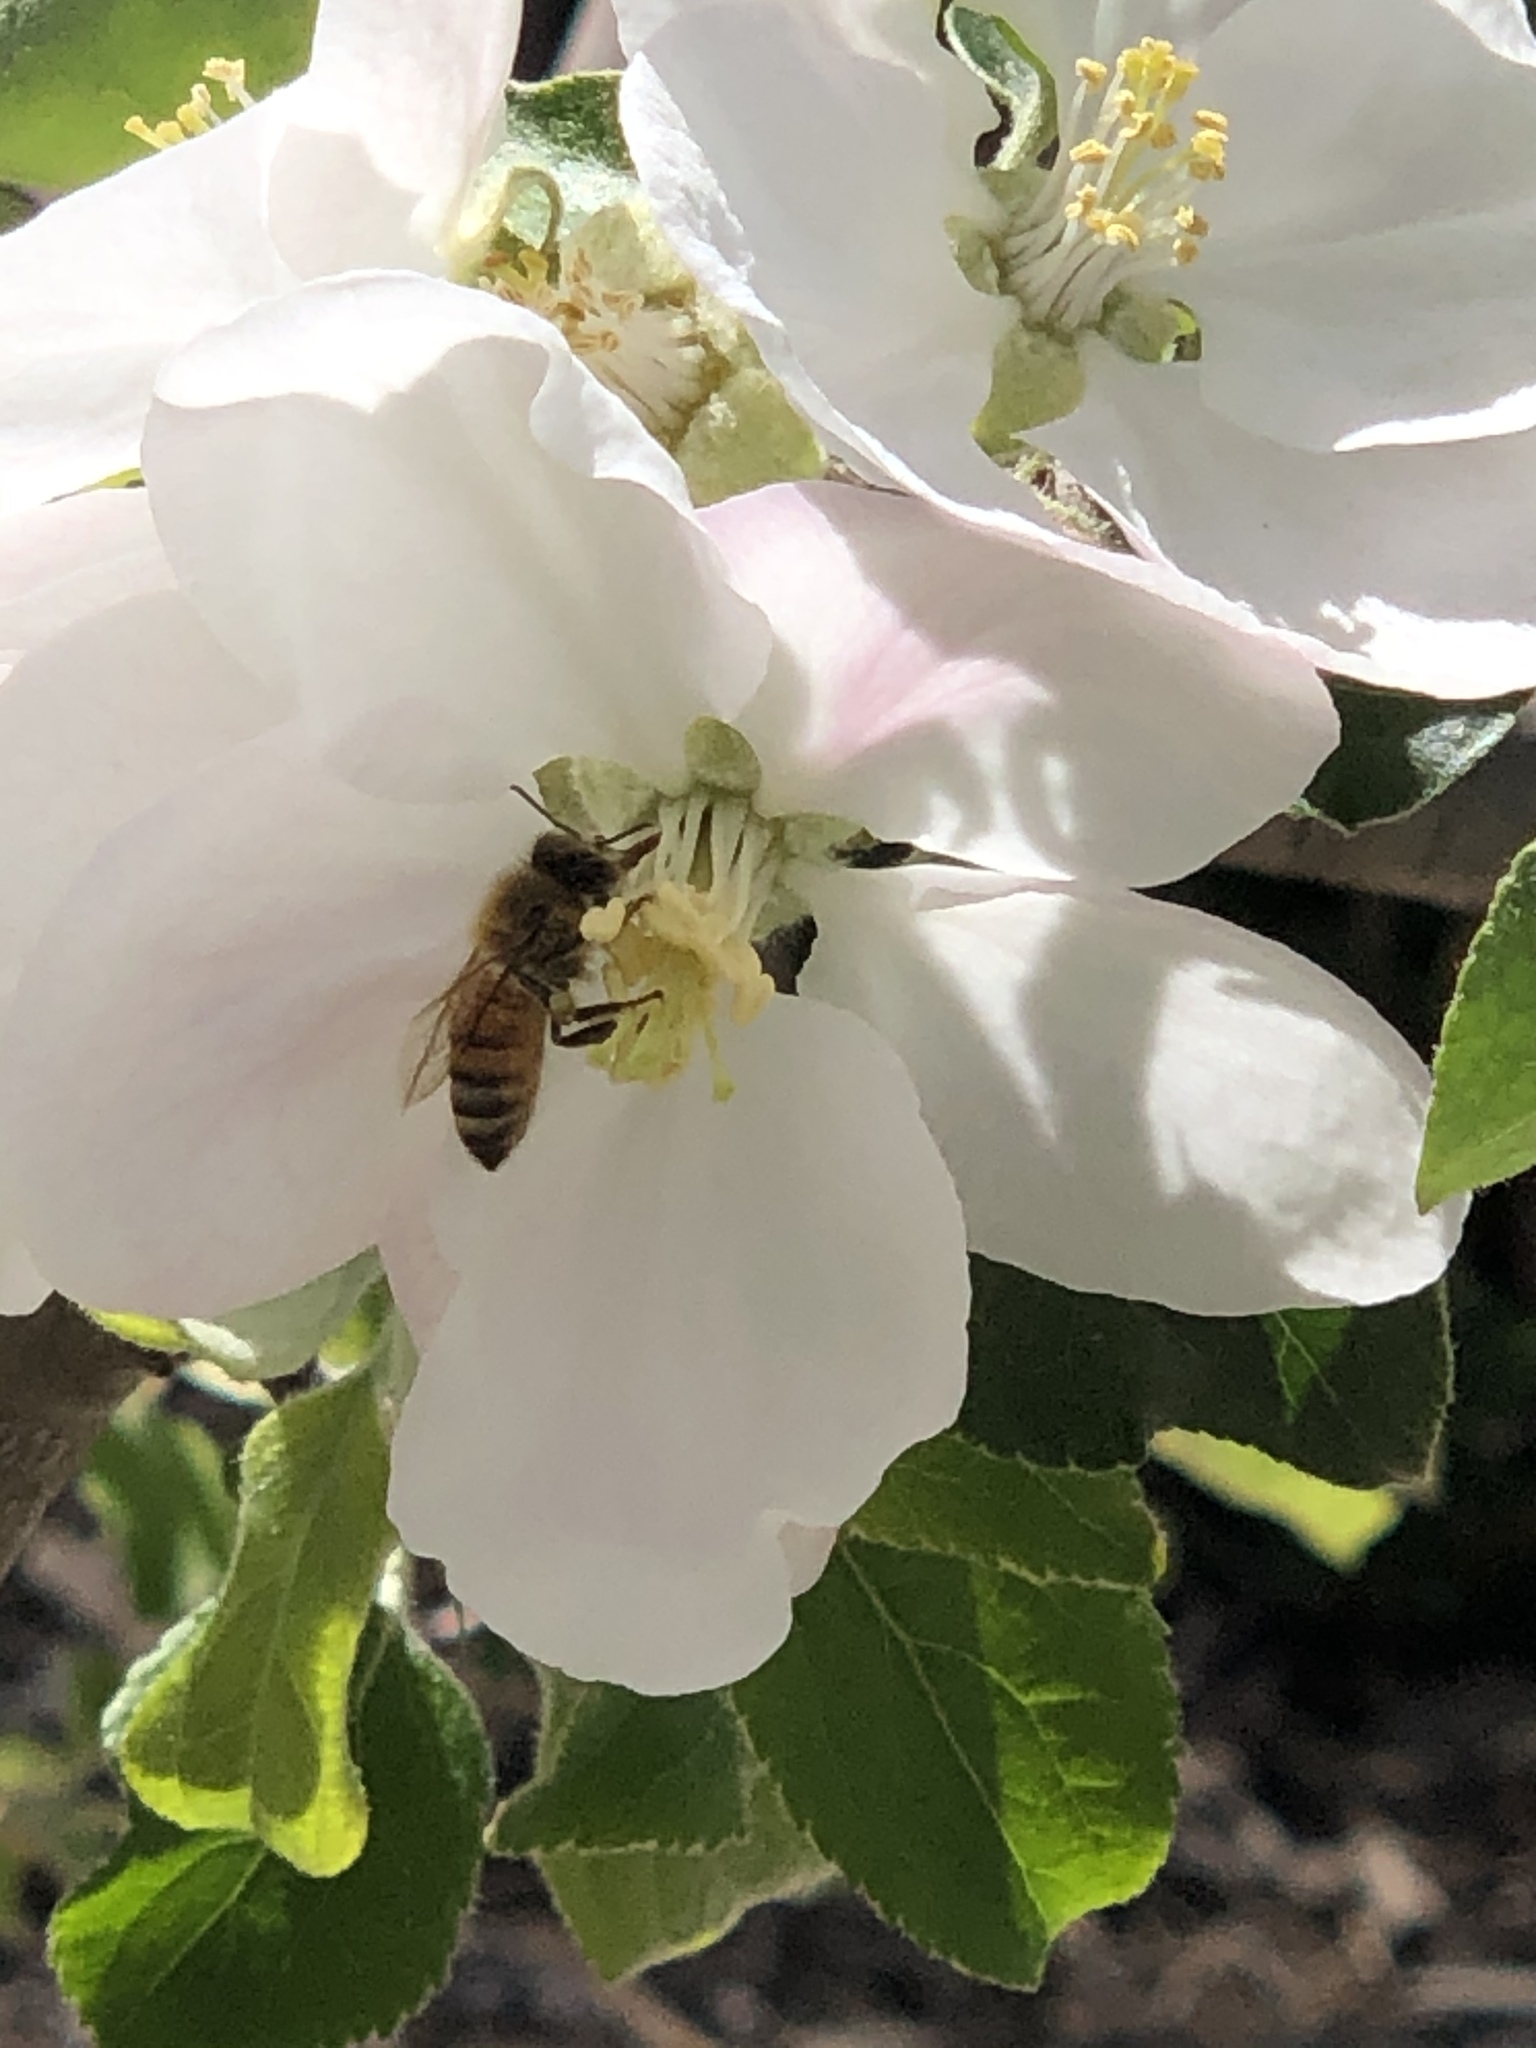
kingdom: Animalia
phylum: Arthropoda
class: Insecta
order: Hymenoptera
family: Apidae
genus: Apis
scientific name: Apis mellifera
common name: Honey bee
